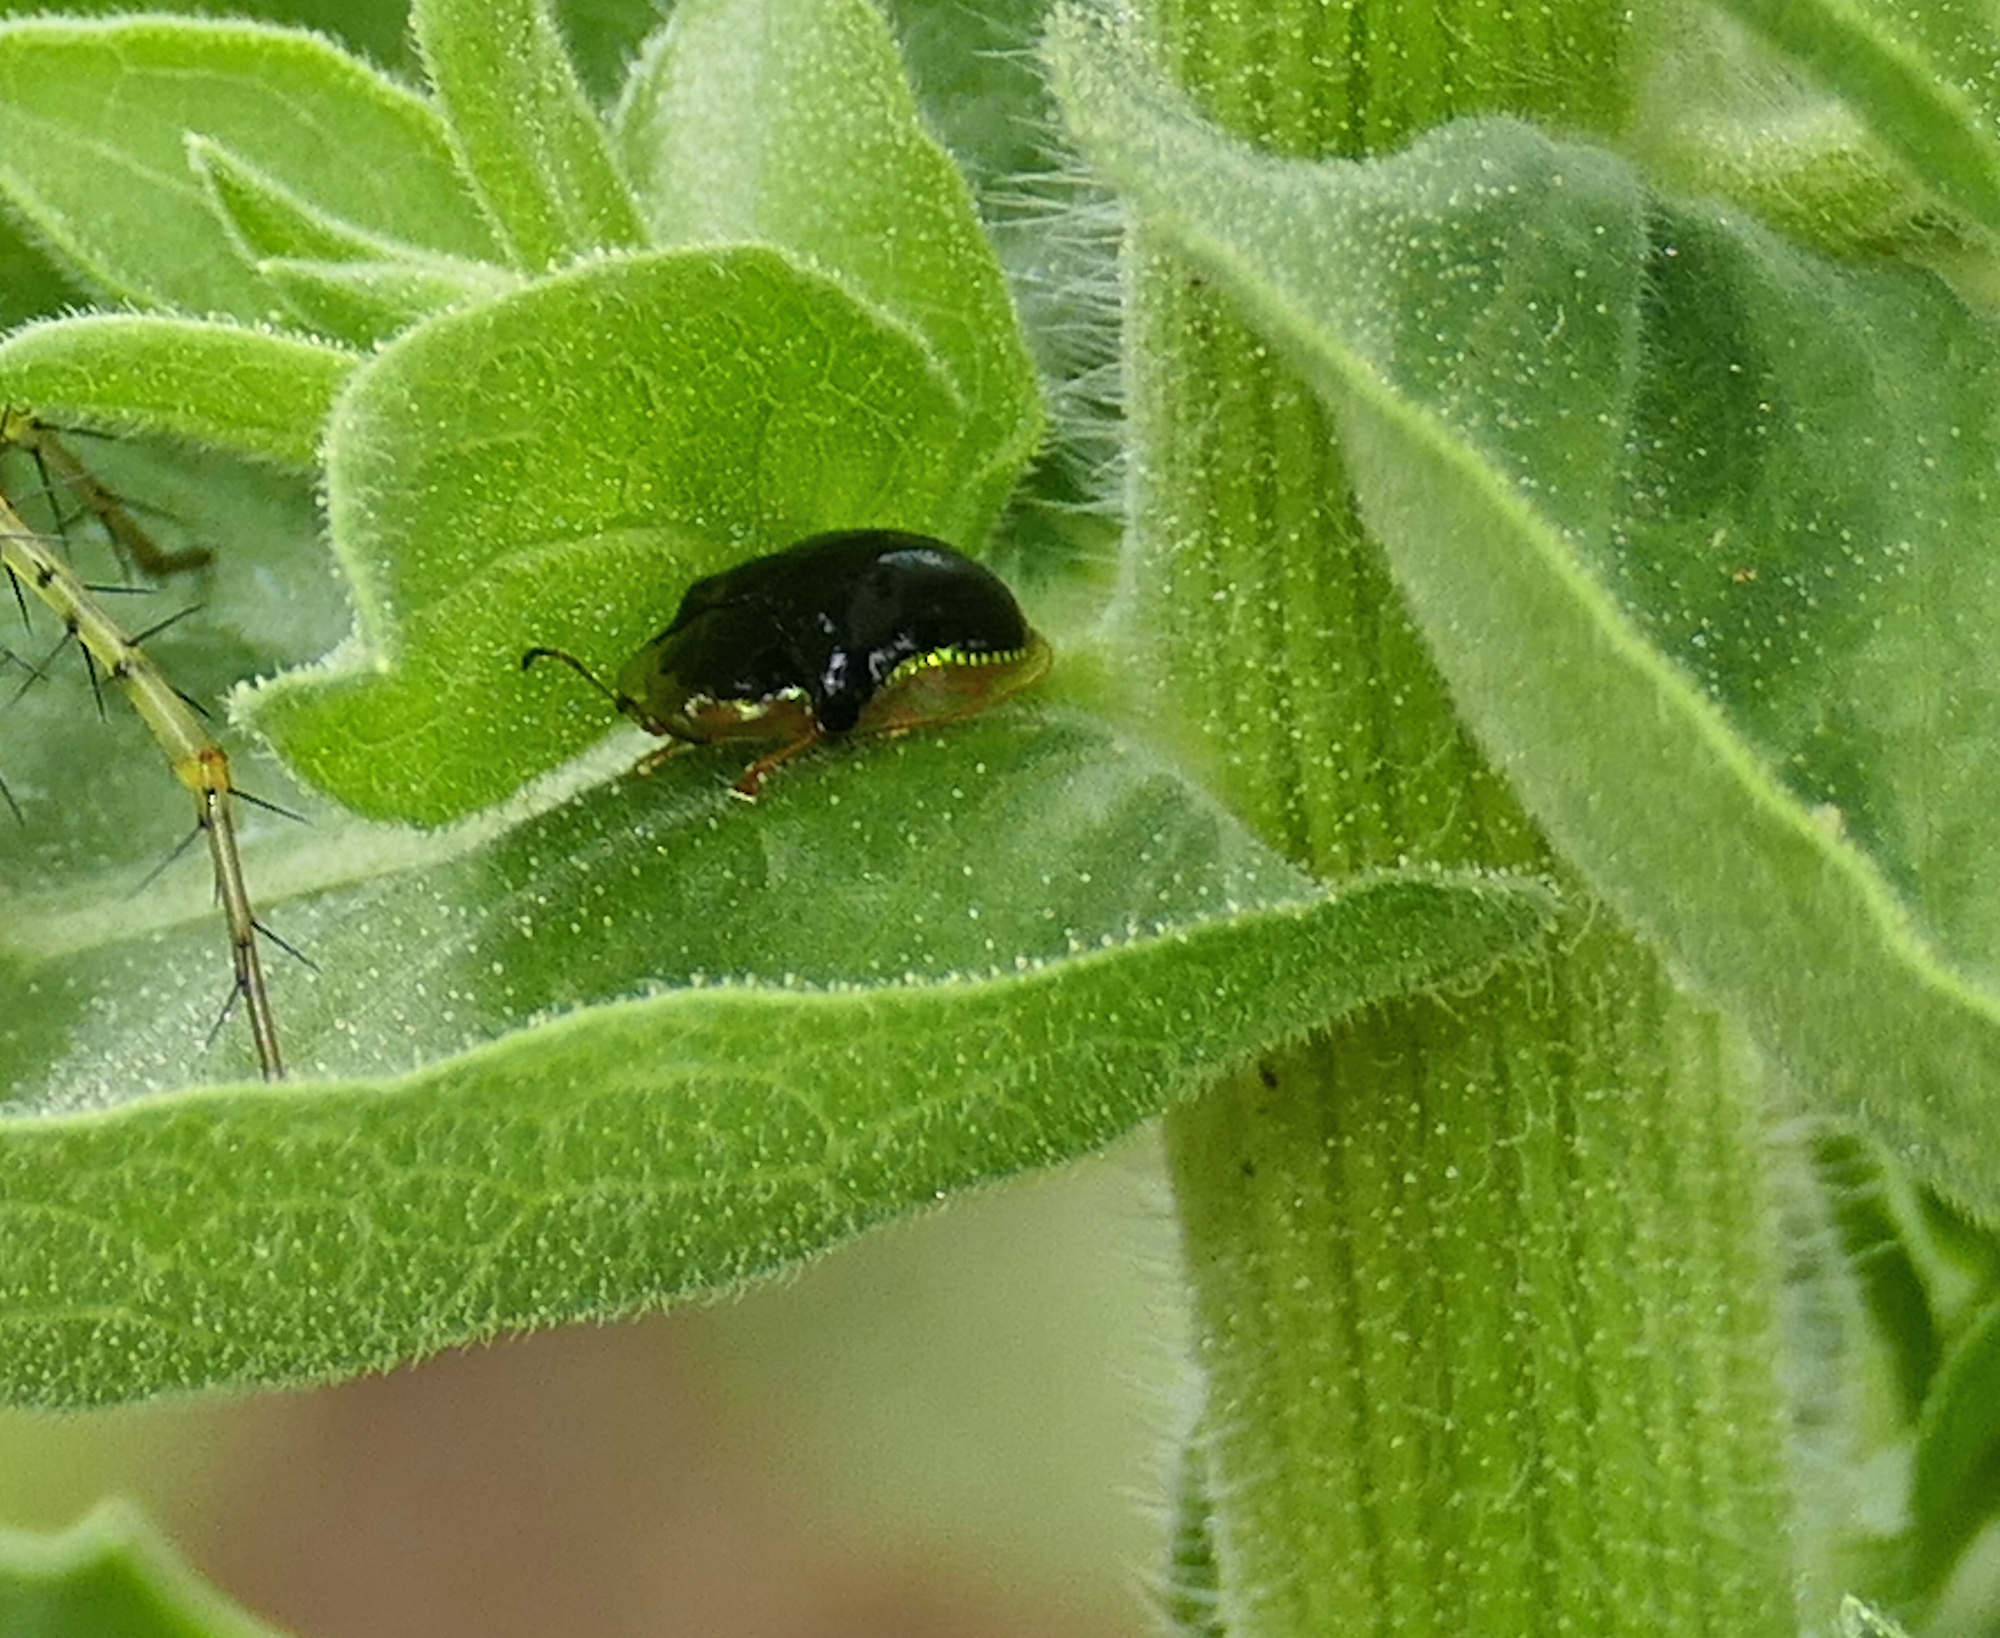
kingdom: Animalia
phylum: Arthropoda
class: Insecta
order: Coleoptera
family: Chrysomelidae
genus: Deloyala
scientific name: Deloyala lecontei
